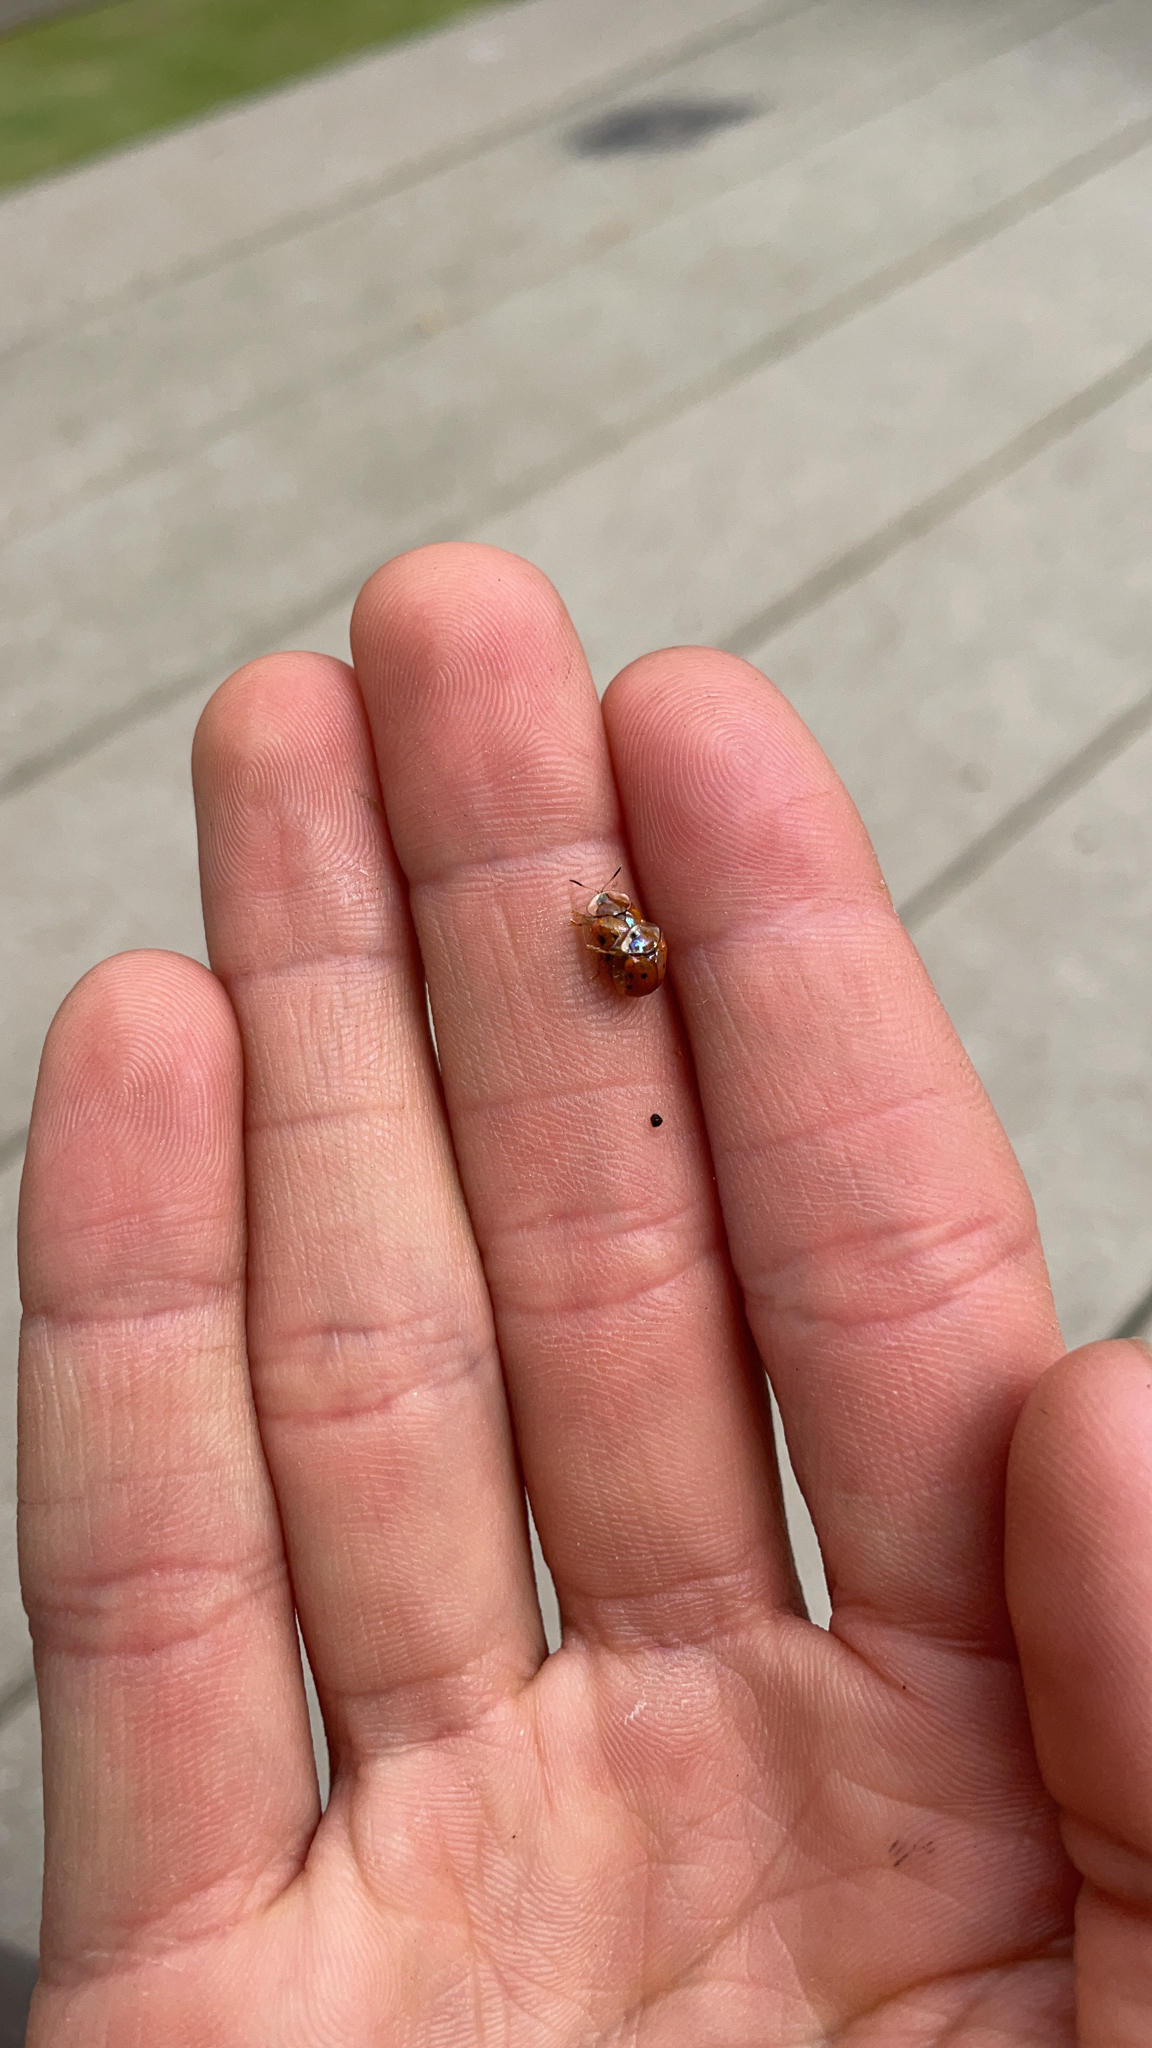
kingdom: Animalia
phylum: Arthropoda
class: Insecta
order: Coleoptera
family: Chrysomelidae
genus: Charidotella
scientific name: Charidotella sexpunctata
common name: Golden tortoise beetle
